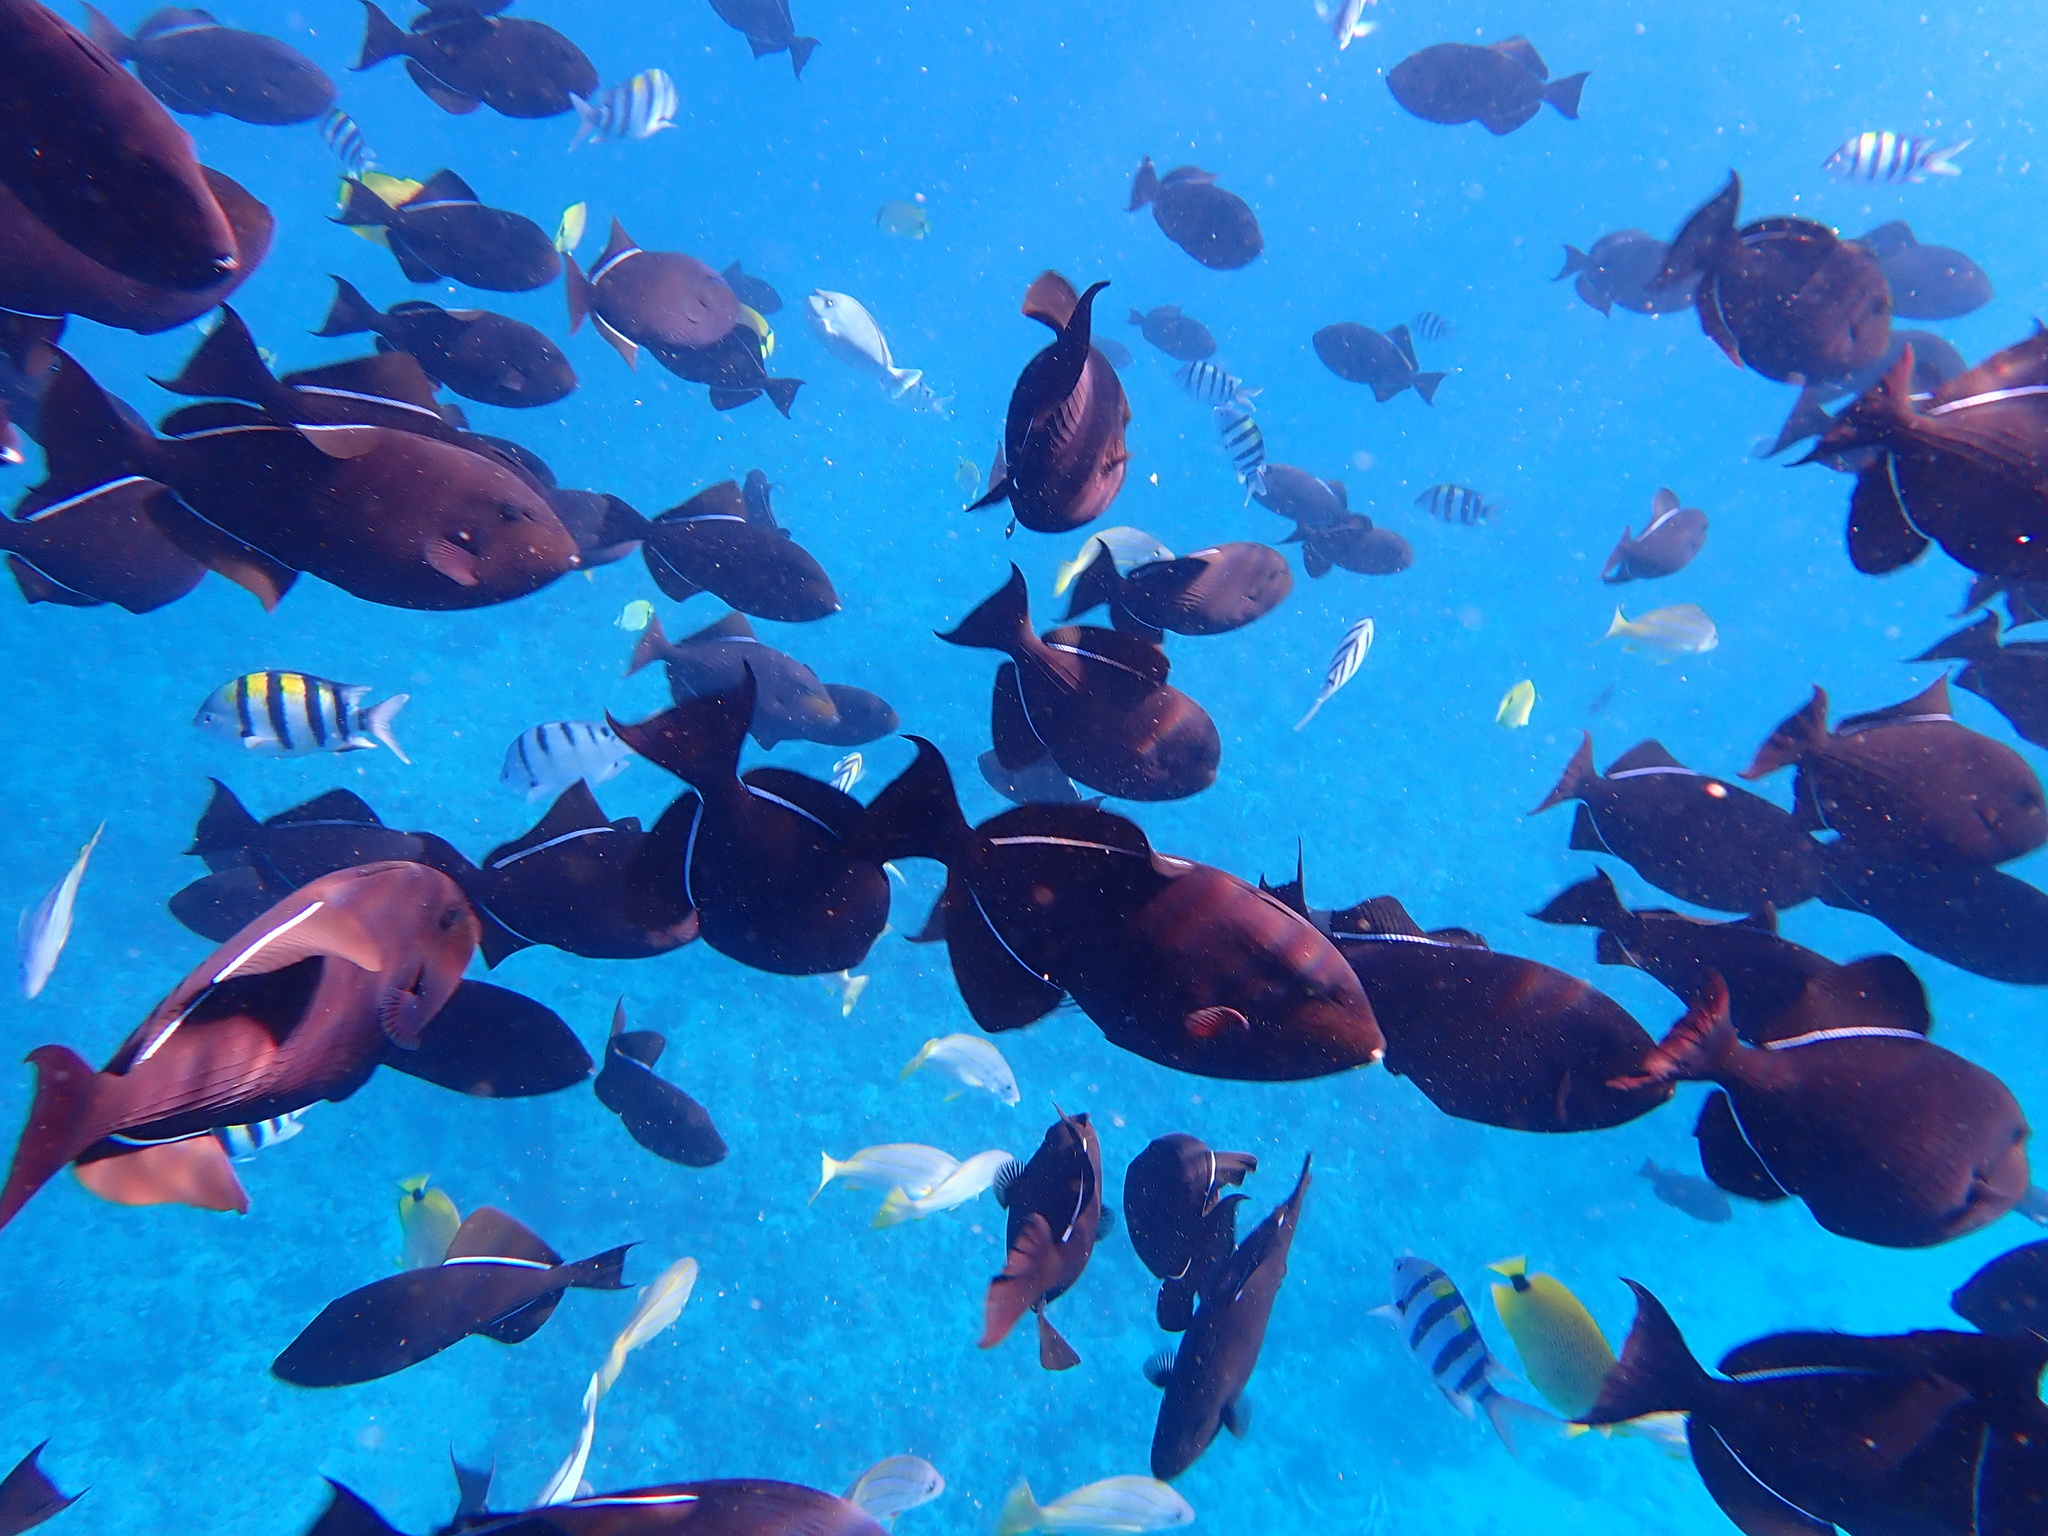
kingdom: Animalia
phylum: Chordata
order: Tetraodontiformes
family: Balistidae
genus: Melichthys
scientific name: Melichthys niger
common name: Black durgon
